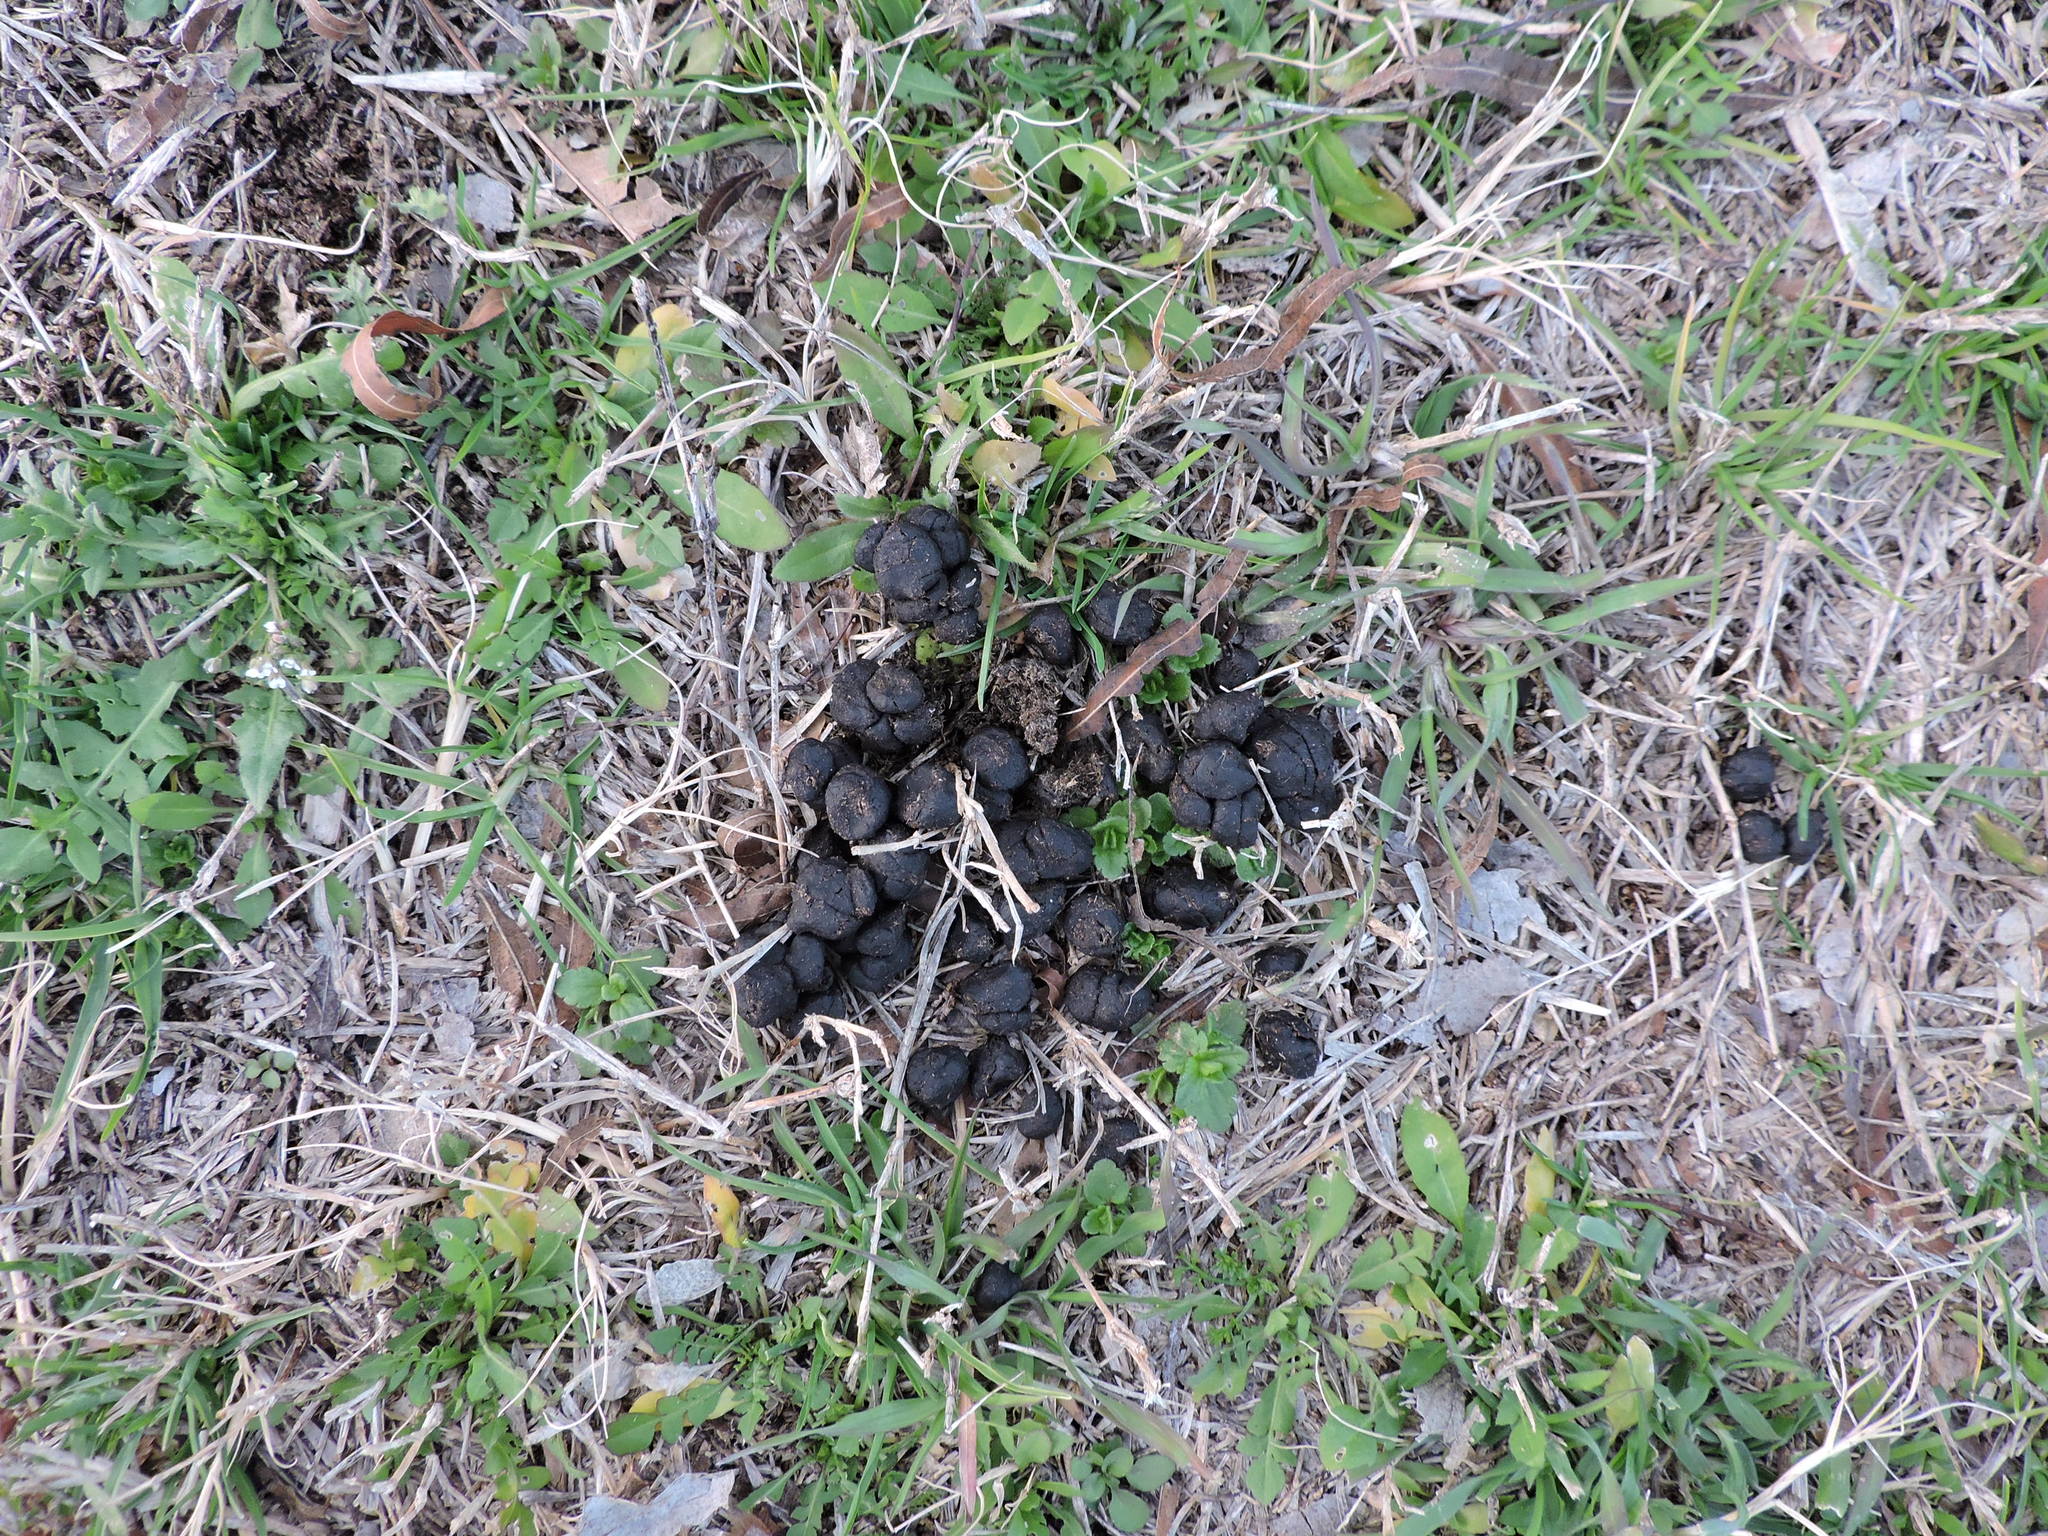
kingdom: Animalia
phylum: Chordata
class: Mammalia
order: Artiodactyla
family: Cervidae
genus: Odocoileus
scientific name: Odocoileus virginianus
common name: White-tailed deer
